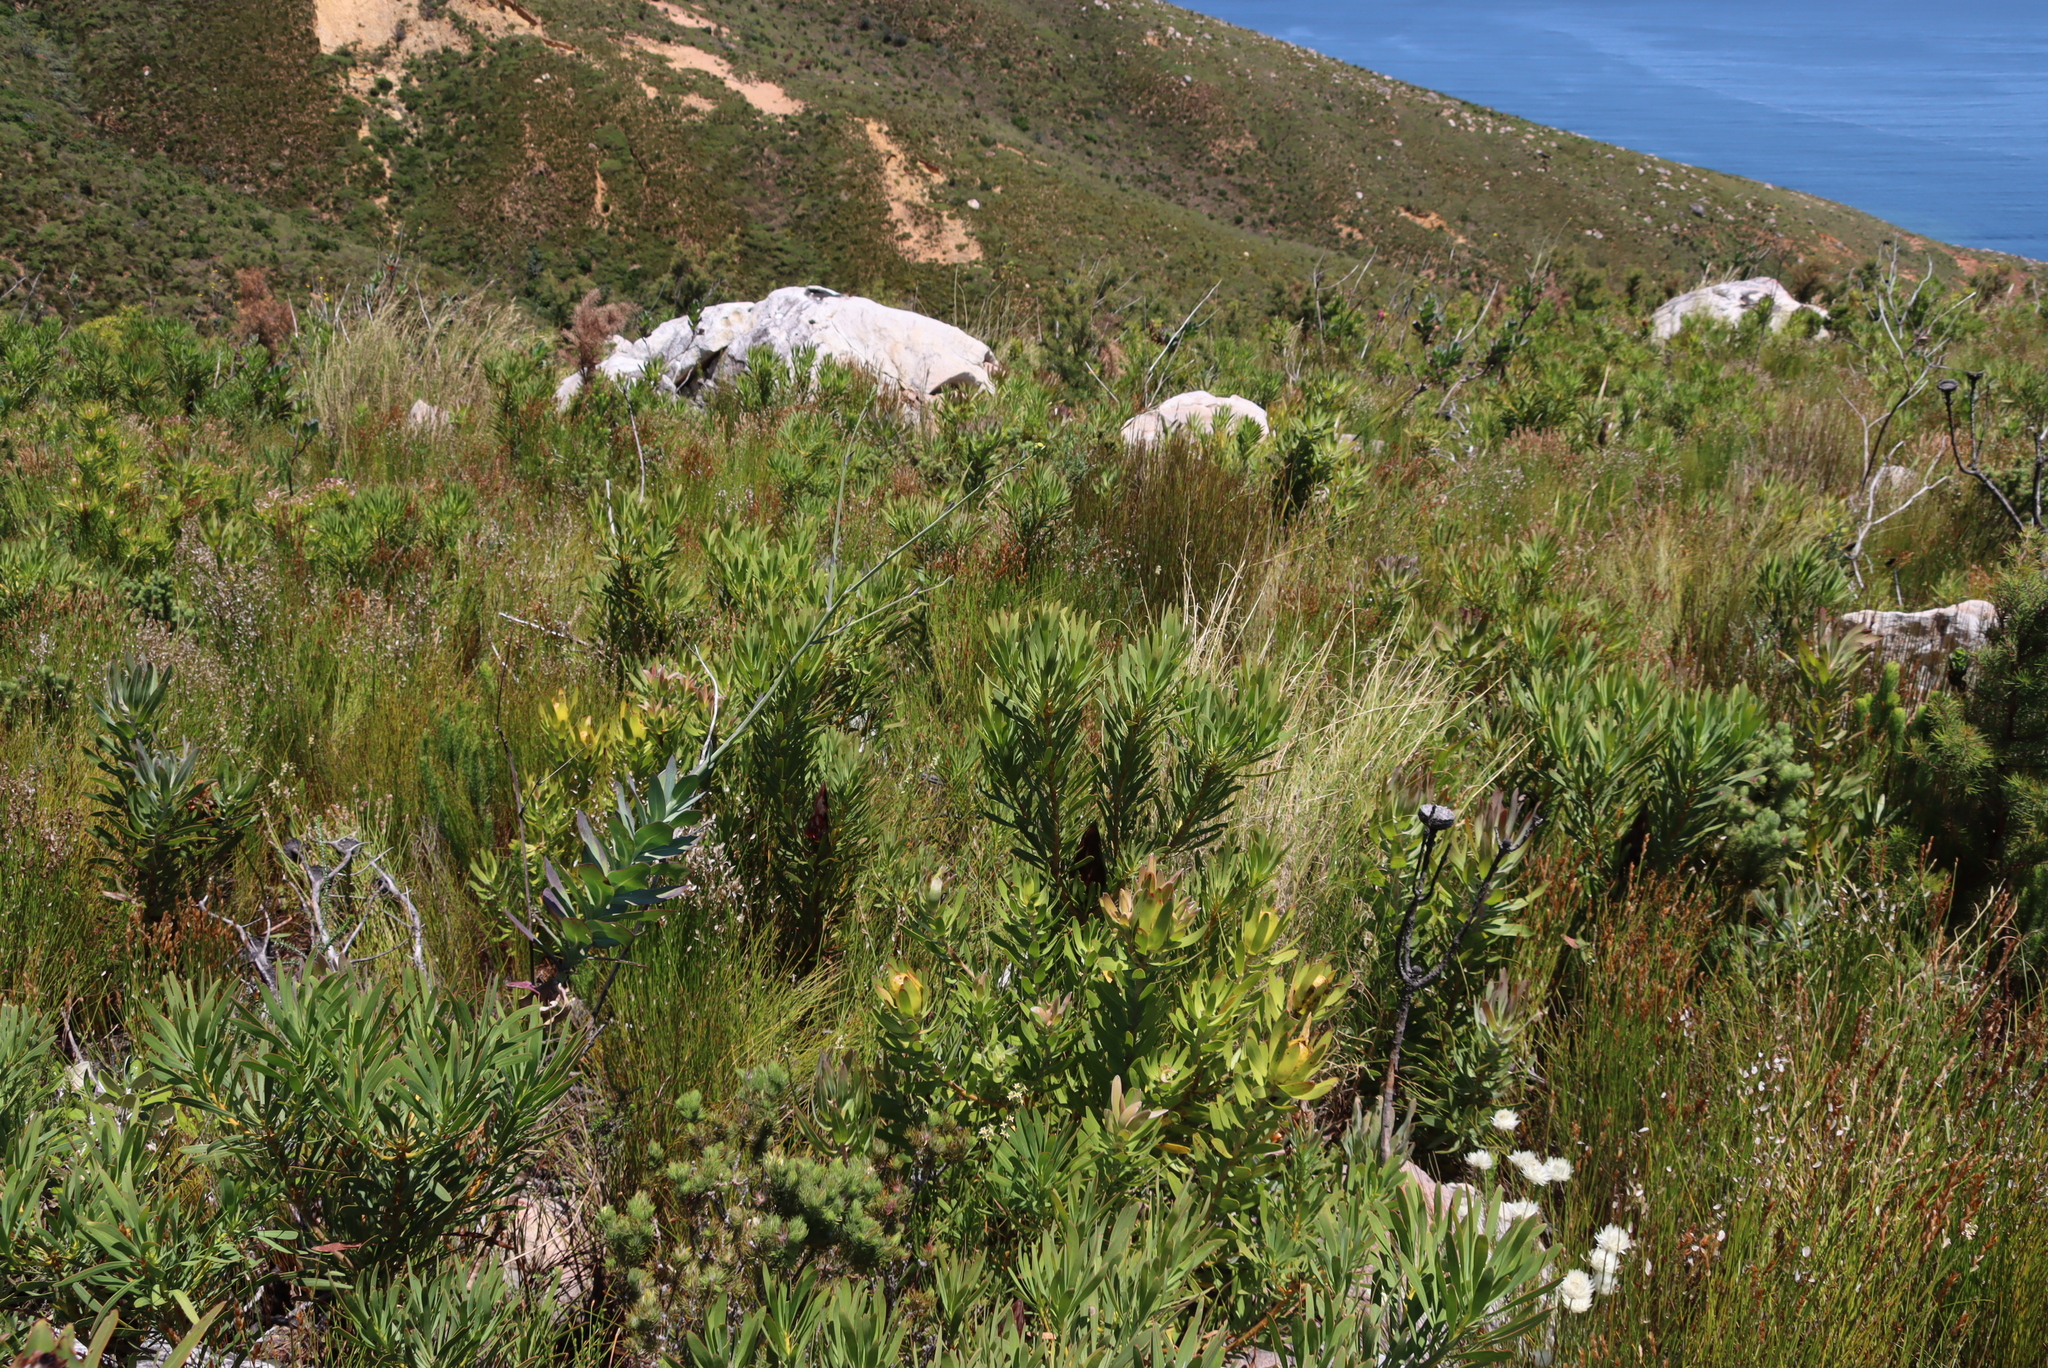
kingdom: Plantae
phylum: Tracheophyta
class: Magnoliopsida
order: Proteales
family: Proteaceae
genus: Protea
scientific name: Protea laurifolia
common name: Grey-leaf sugarbsh
